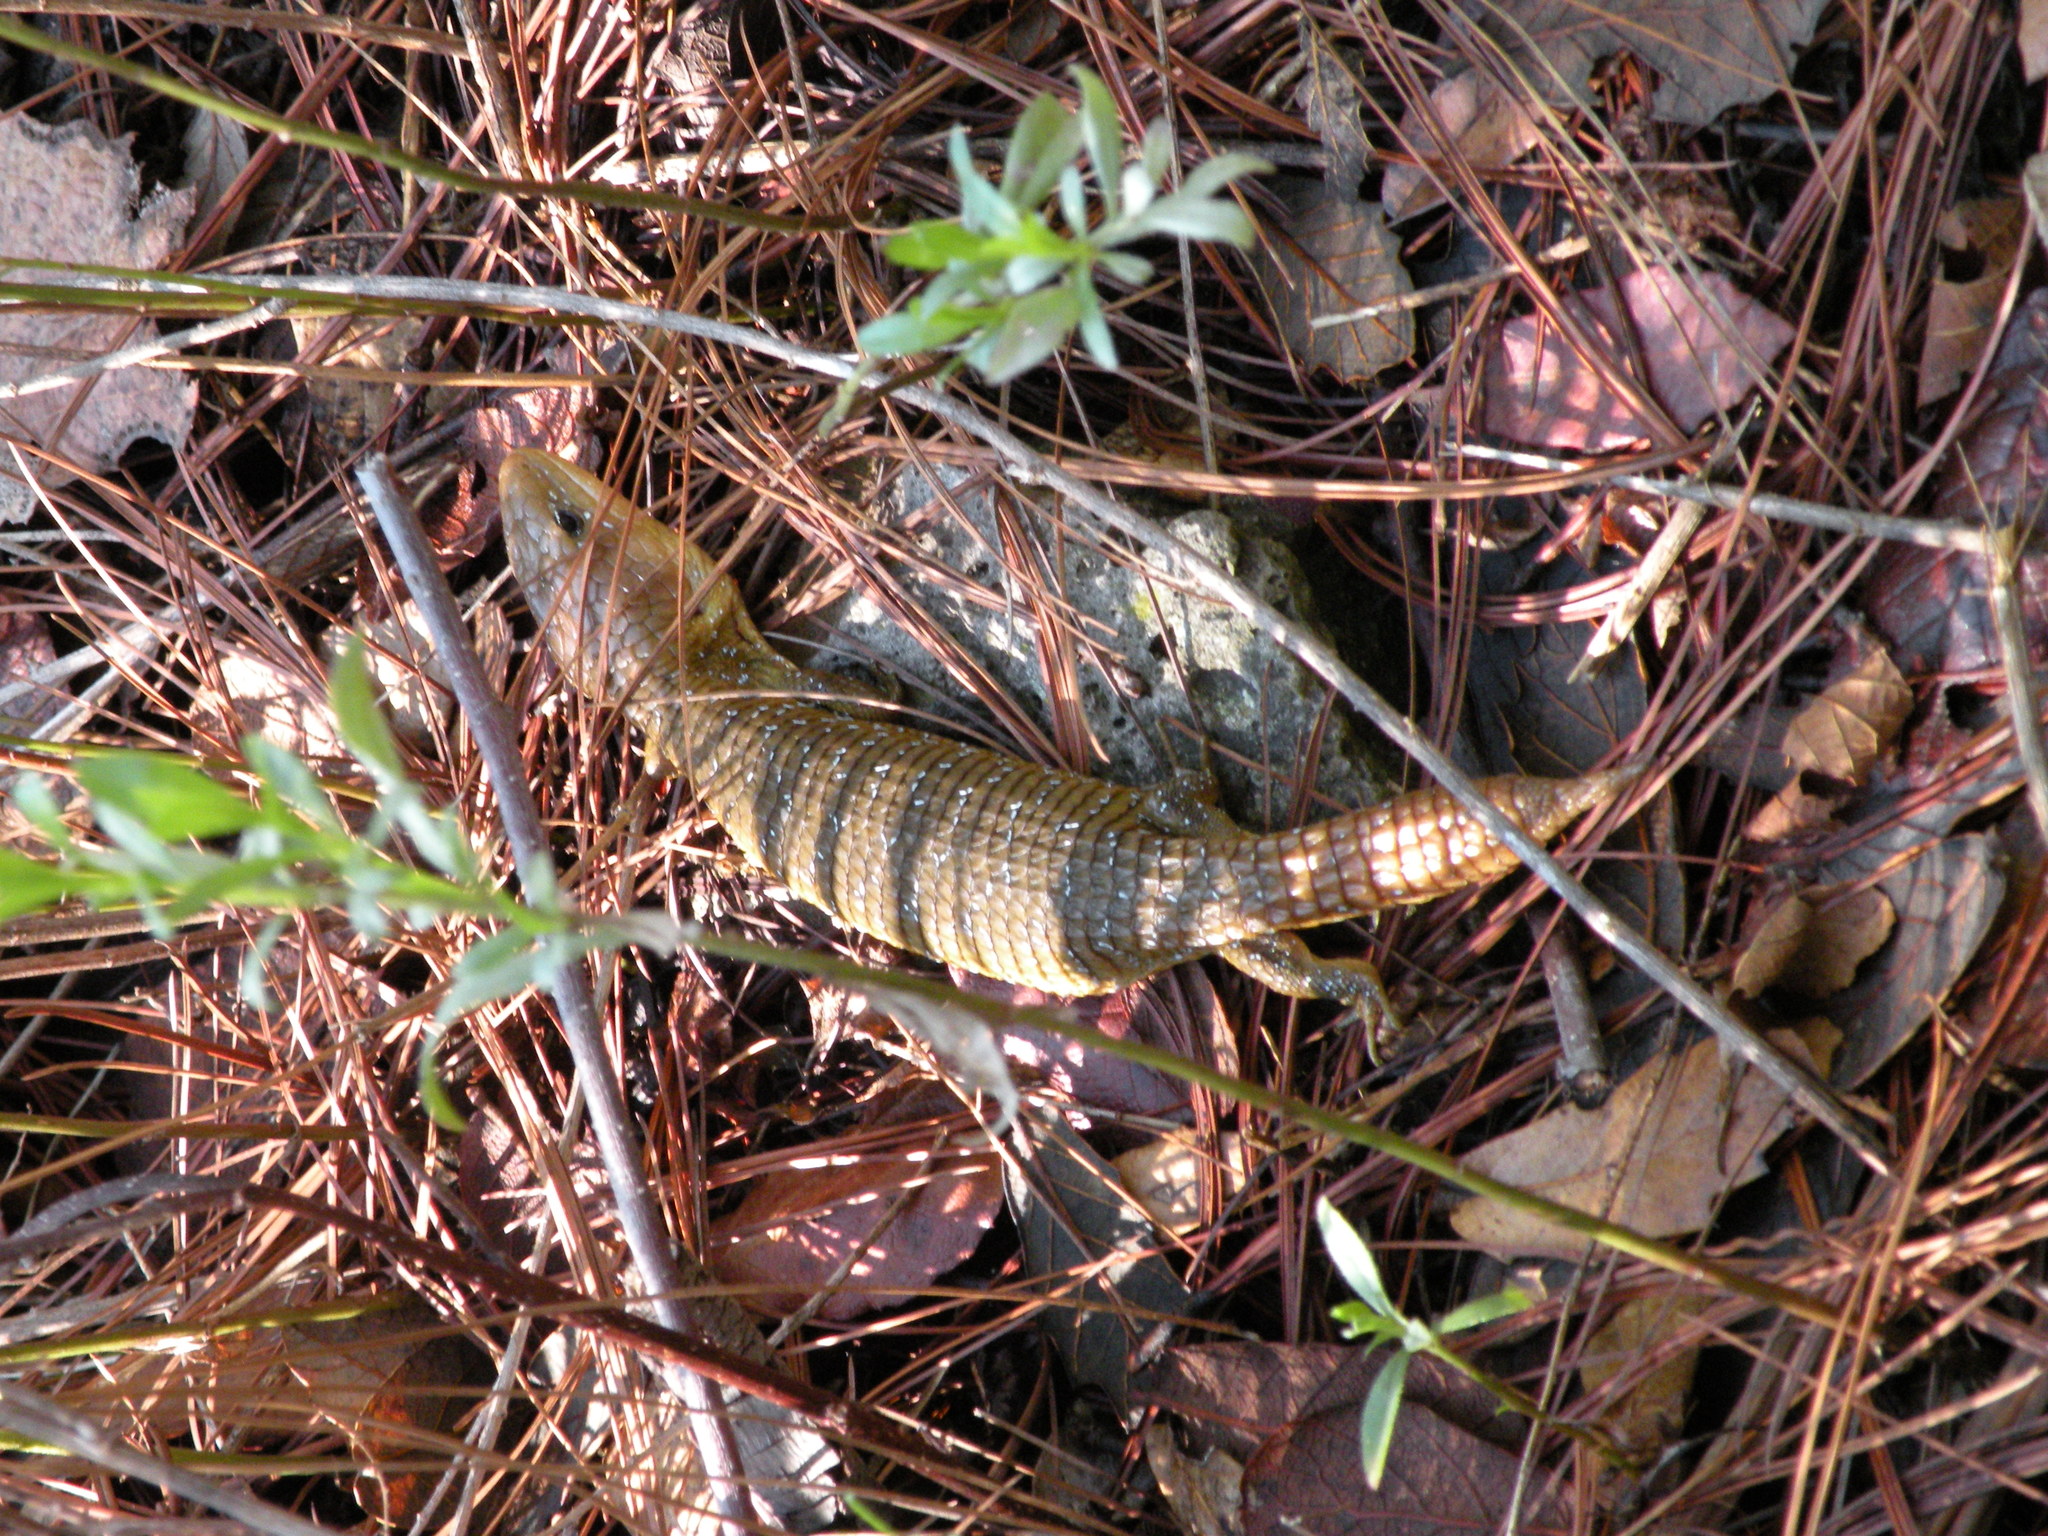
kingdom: Animalia
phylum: Chordata
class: Squamata
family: Anguidae
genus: Barisia
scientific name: Barisia ciliaris
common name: Imbricate alligator lizard
